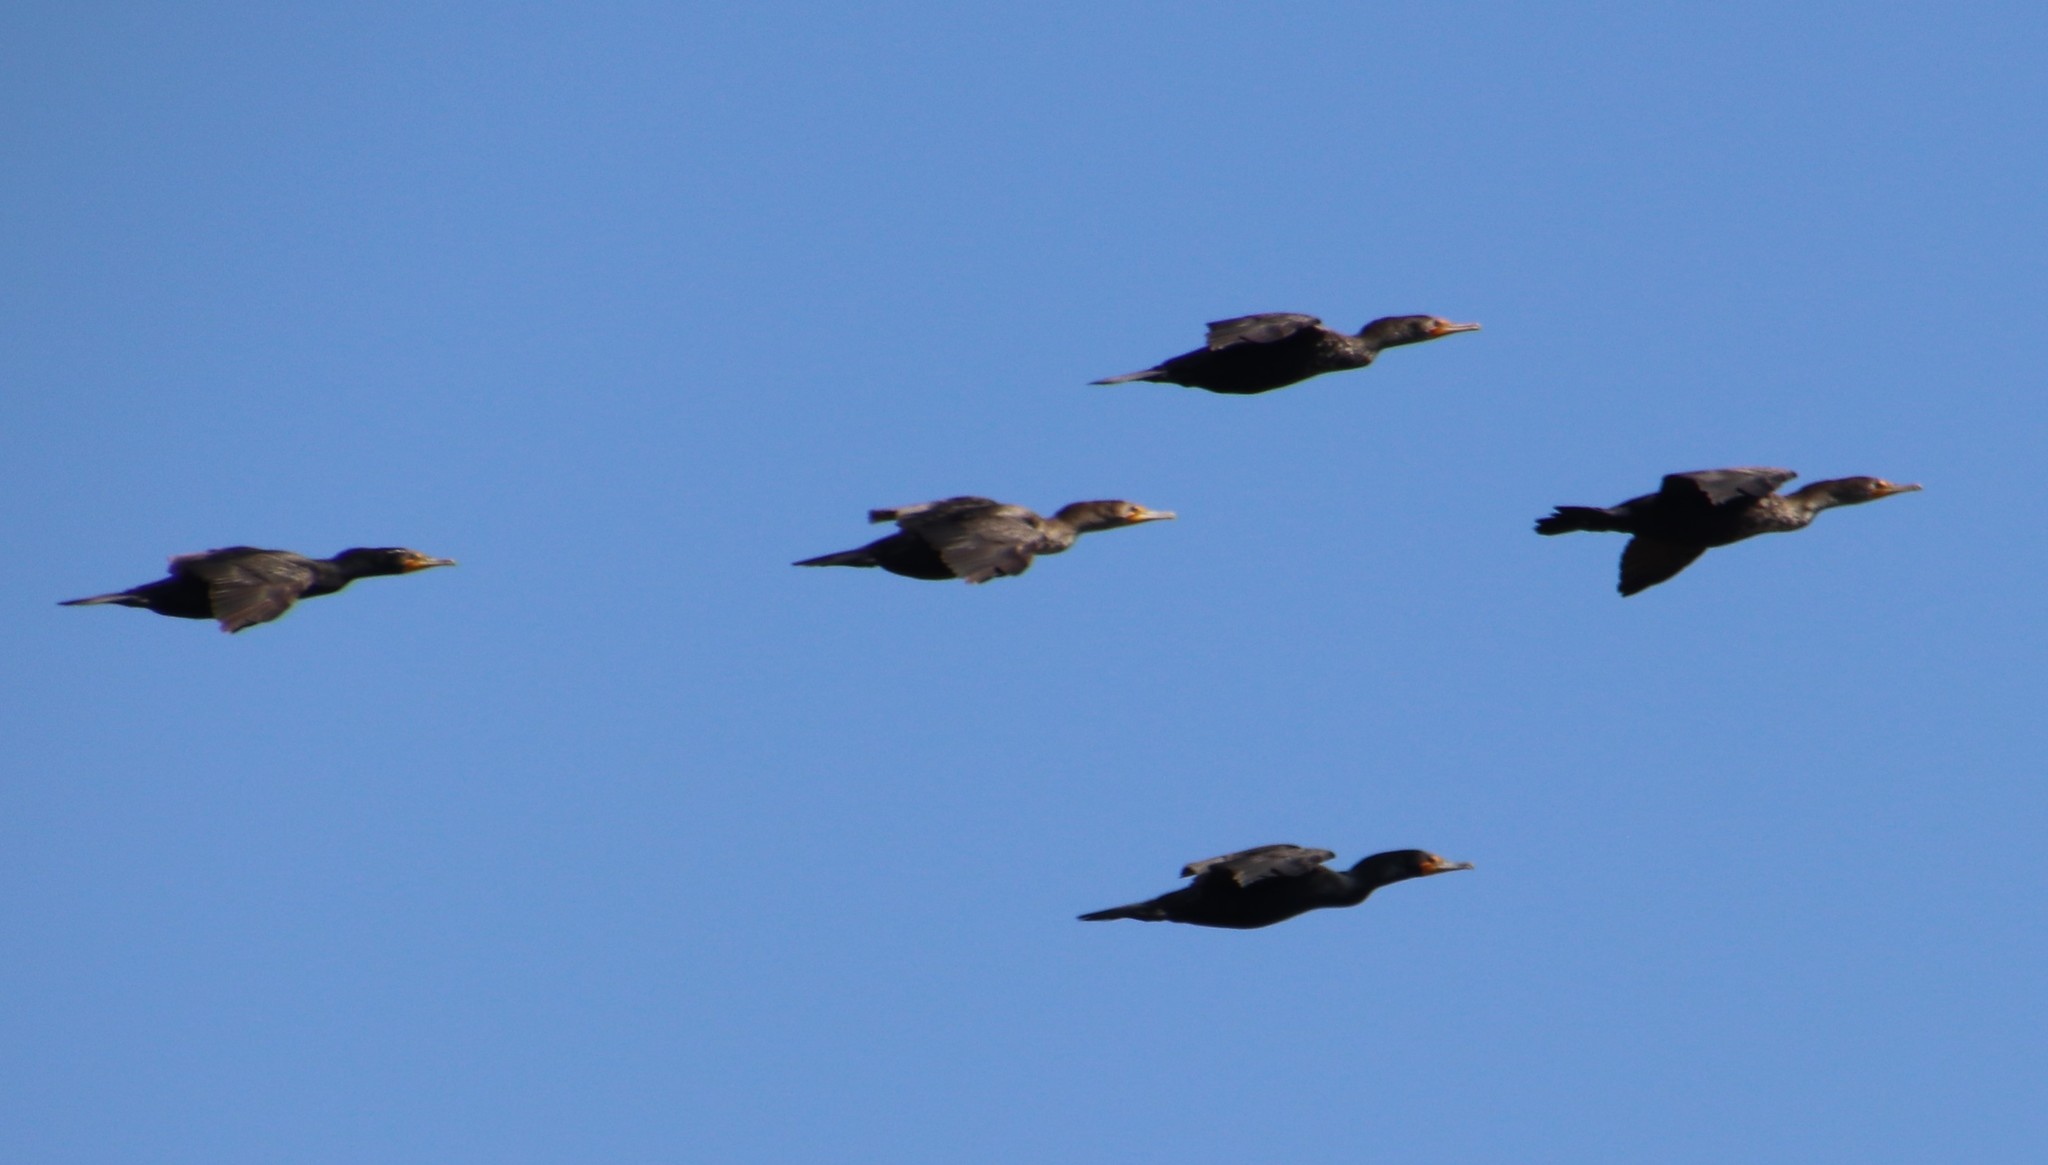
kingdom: Animalia
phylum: Chordata
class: Aves
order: Suliformes
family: Phalacrocoracidae
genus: Phalacrocorax
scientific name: Phalacrocorax auritus
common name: Double-crested cormorant
